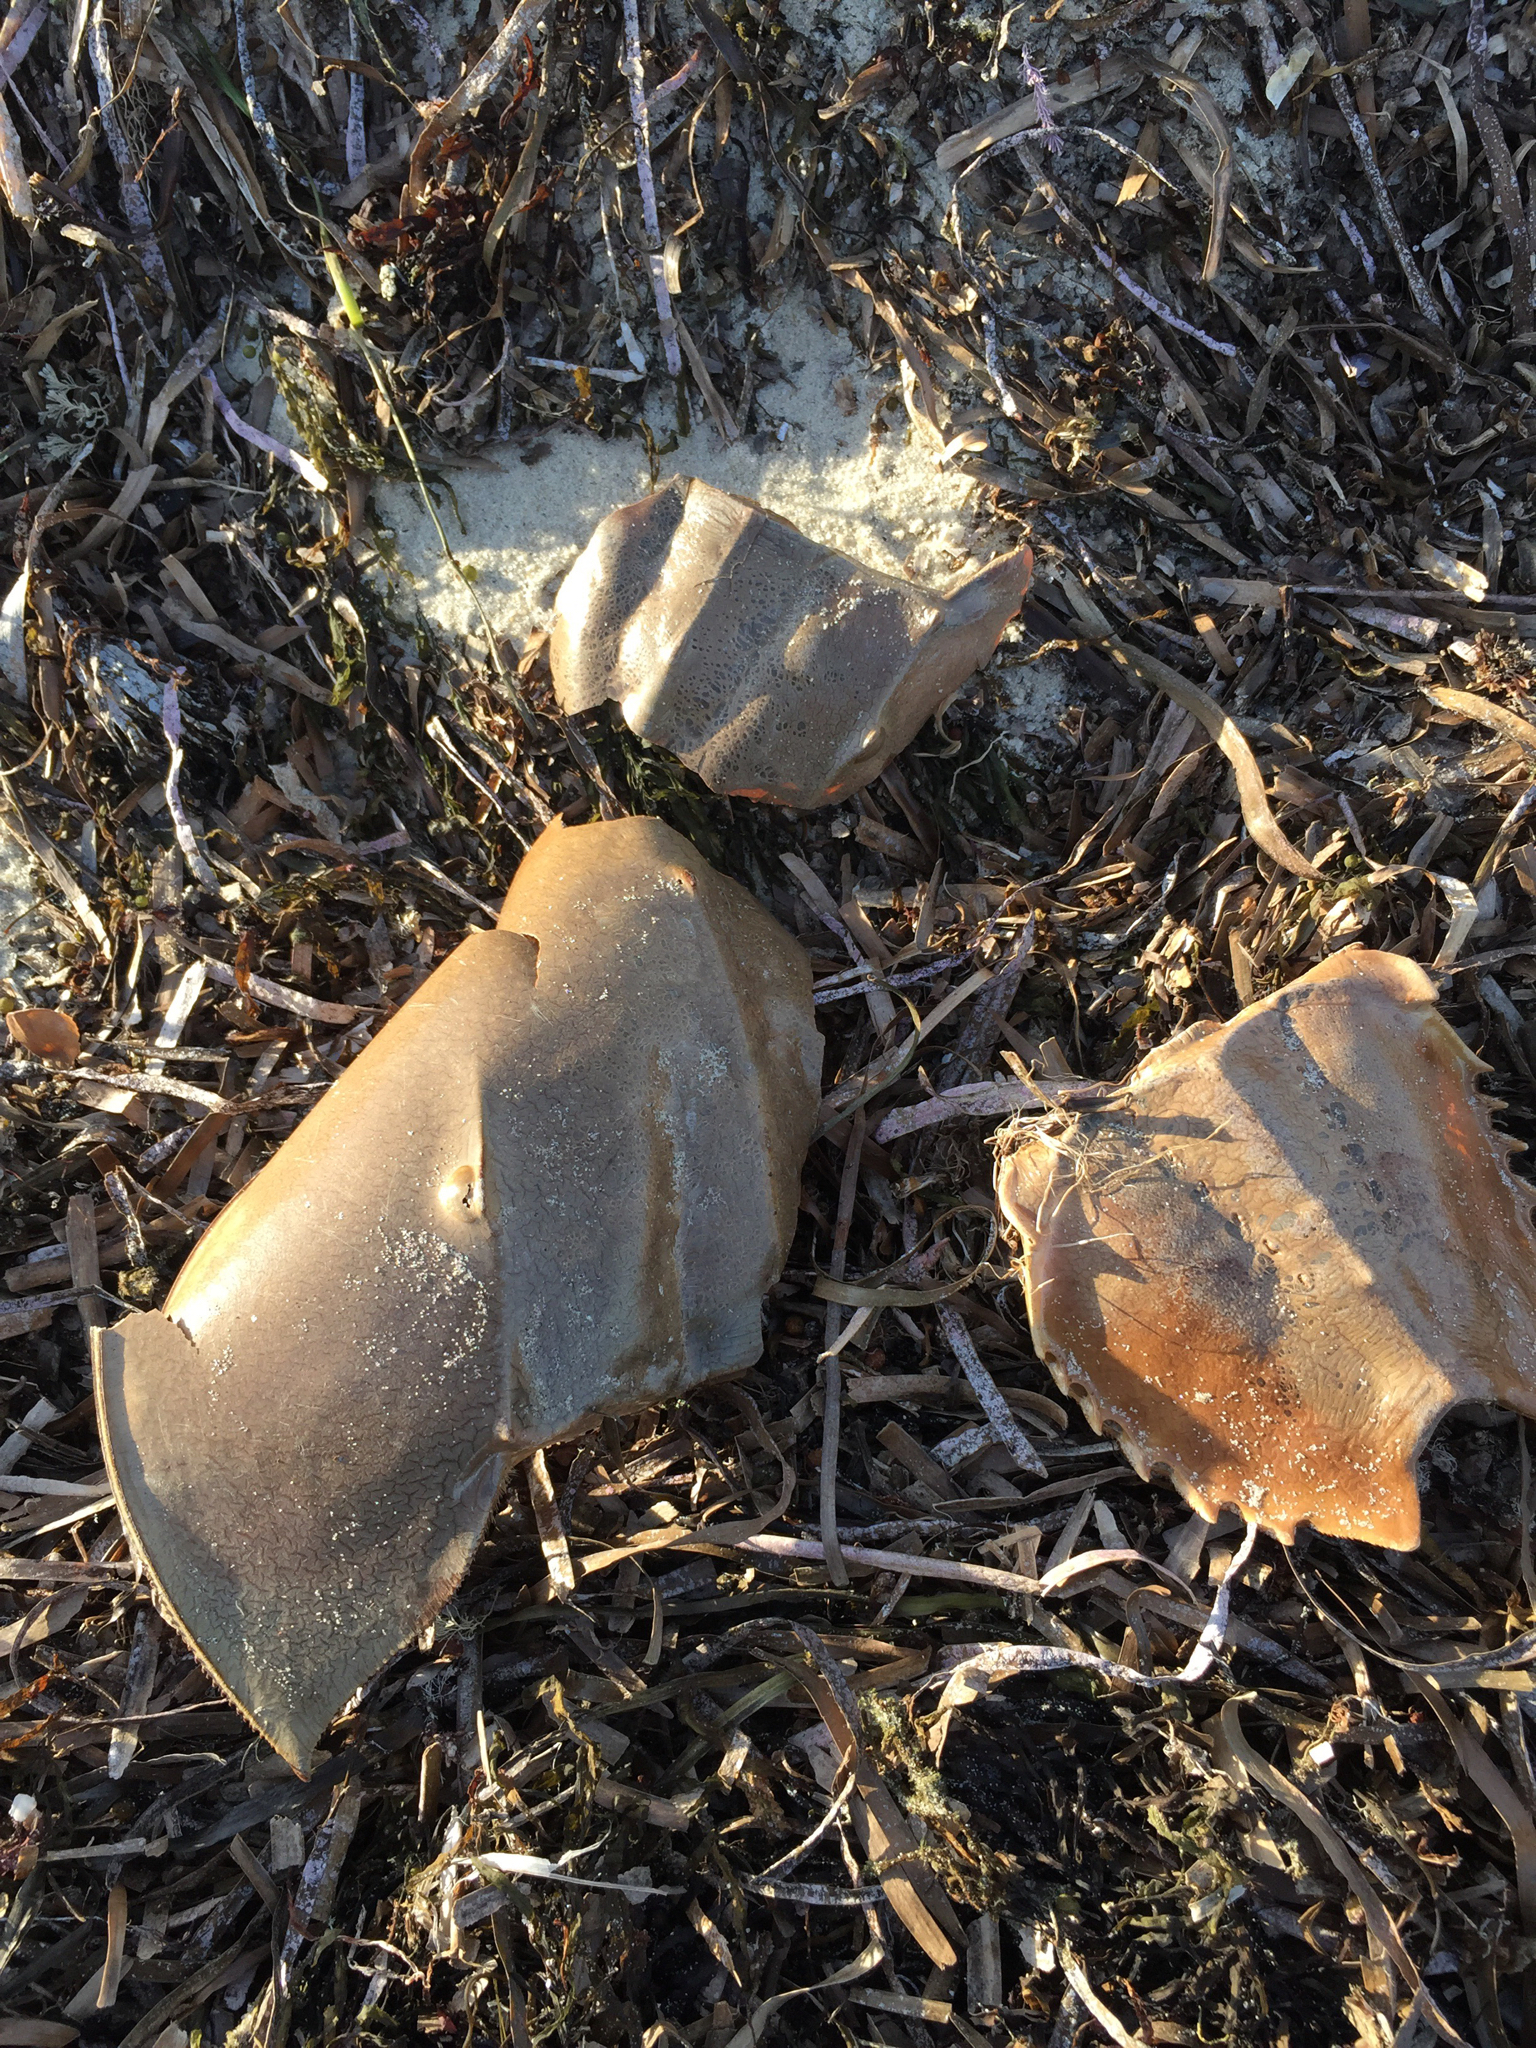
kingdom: Animalia
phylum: Arthropoda
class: Merostomata
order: Xiphosurida
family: Limulidae
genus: Limulus
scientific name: Limulus polyphemus
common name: Horseshoe crab
